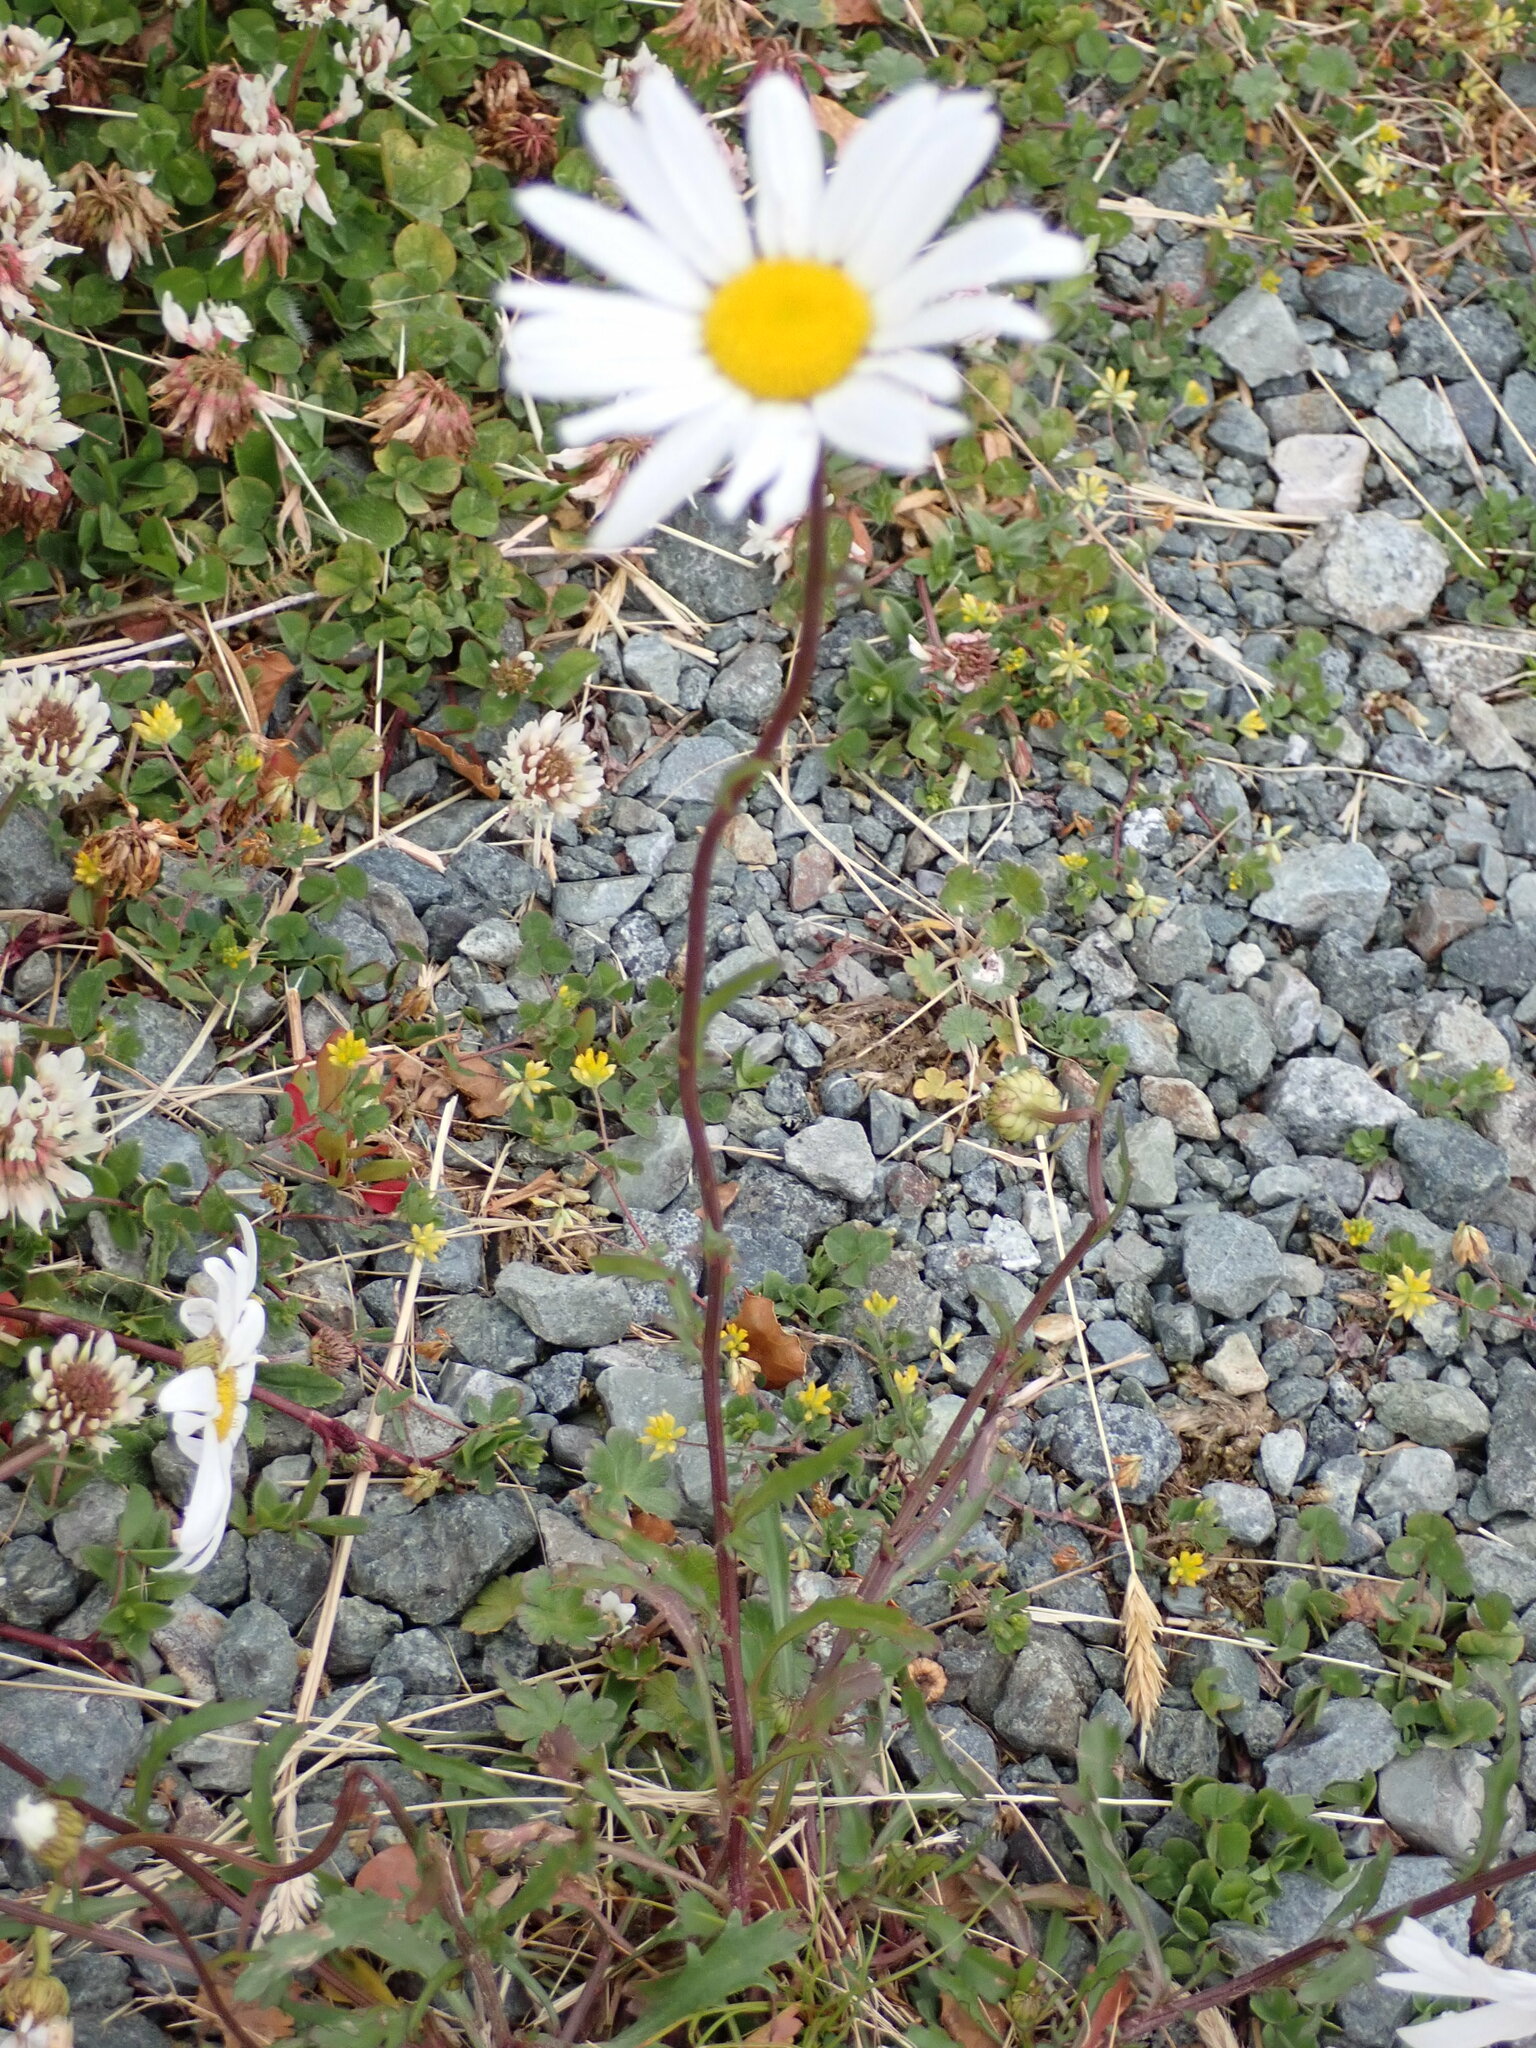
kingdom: Plantae
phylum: Tracheophyta
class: Magnoliopsida
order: Asterales
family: Asteraceae
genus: Leucanthemum
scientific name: Leucanthemum vulgare
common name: Oxeye daisy
